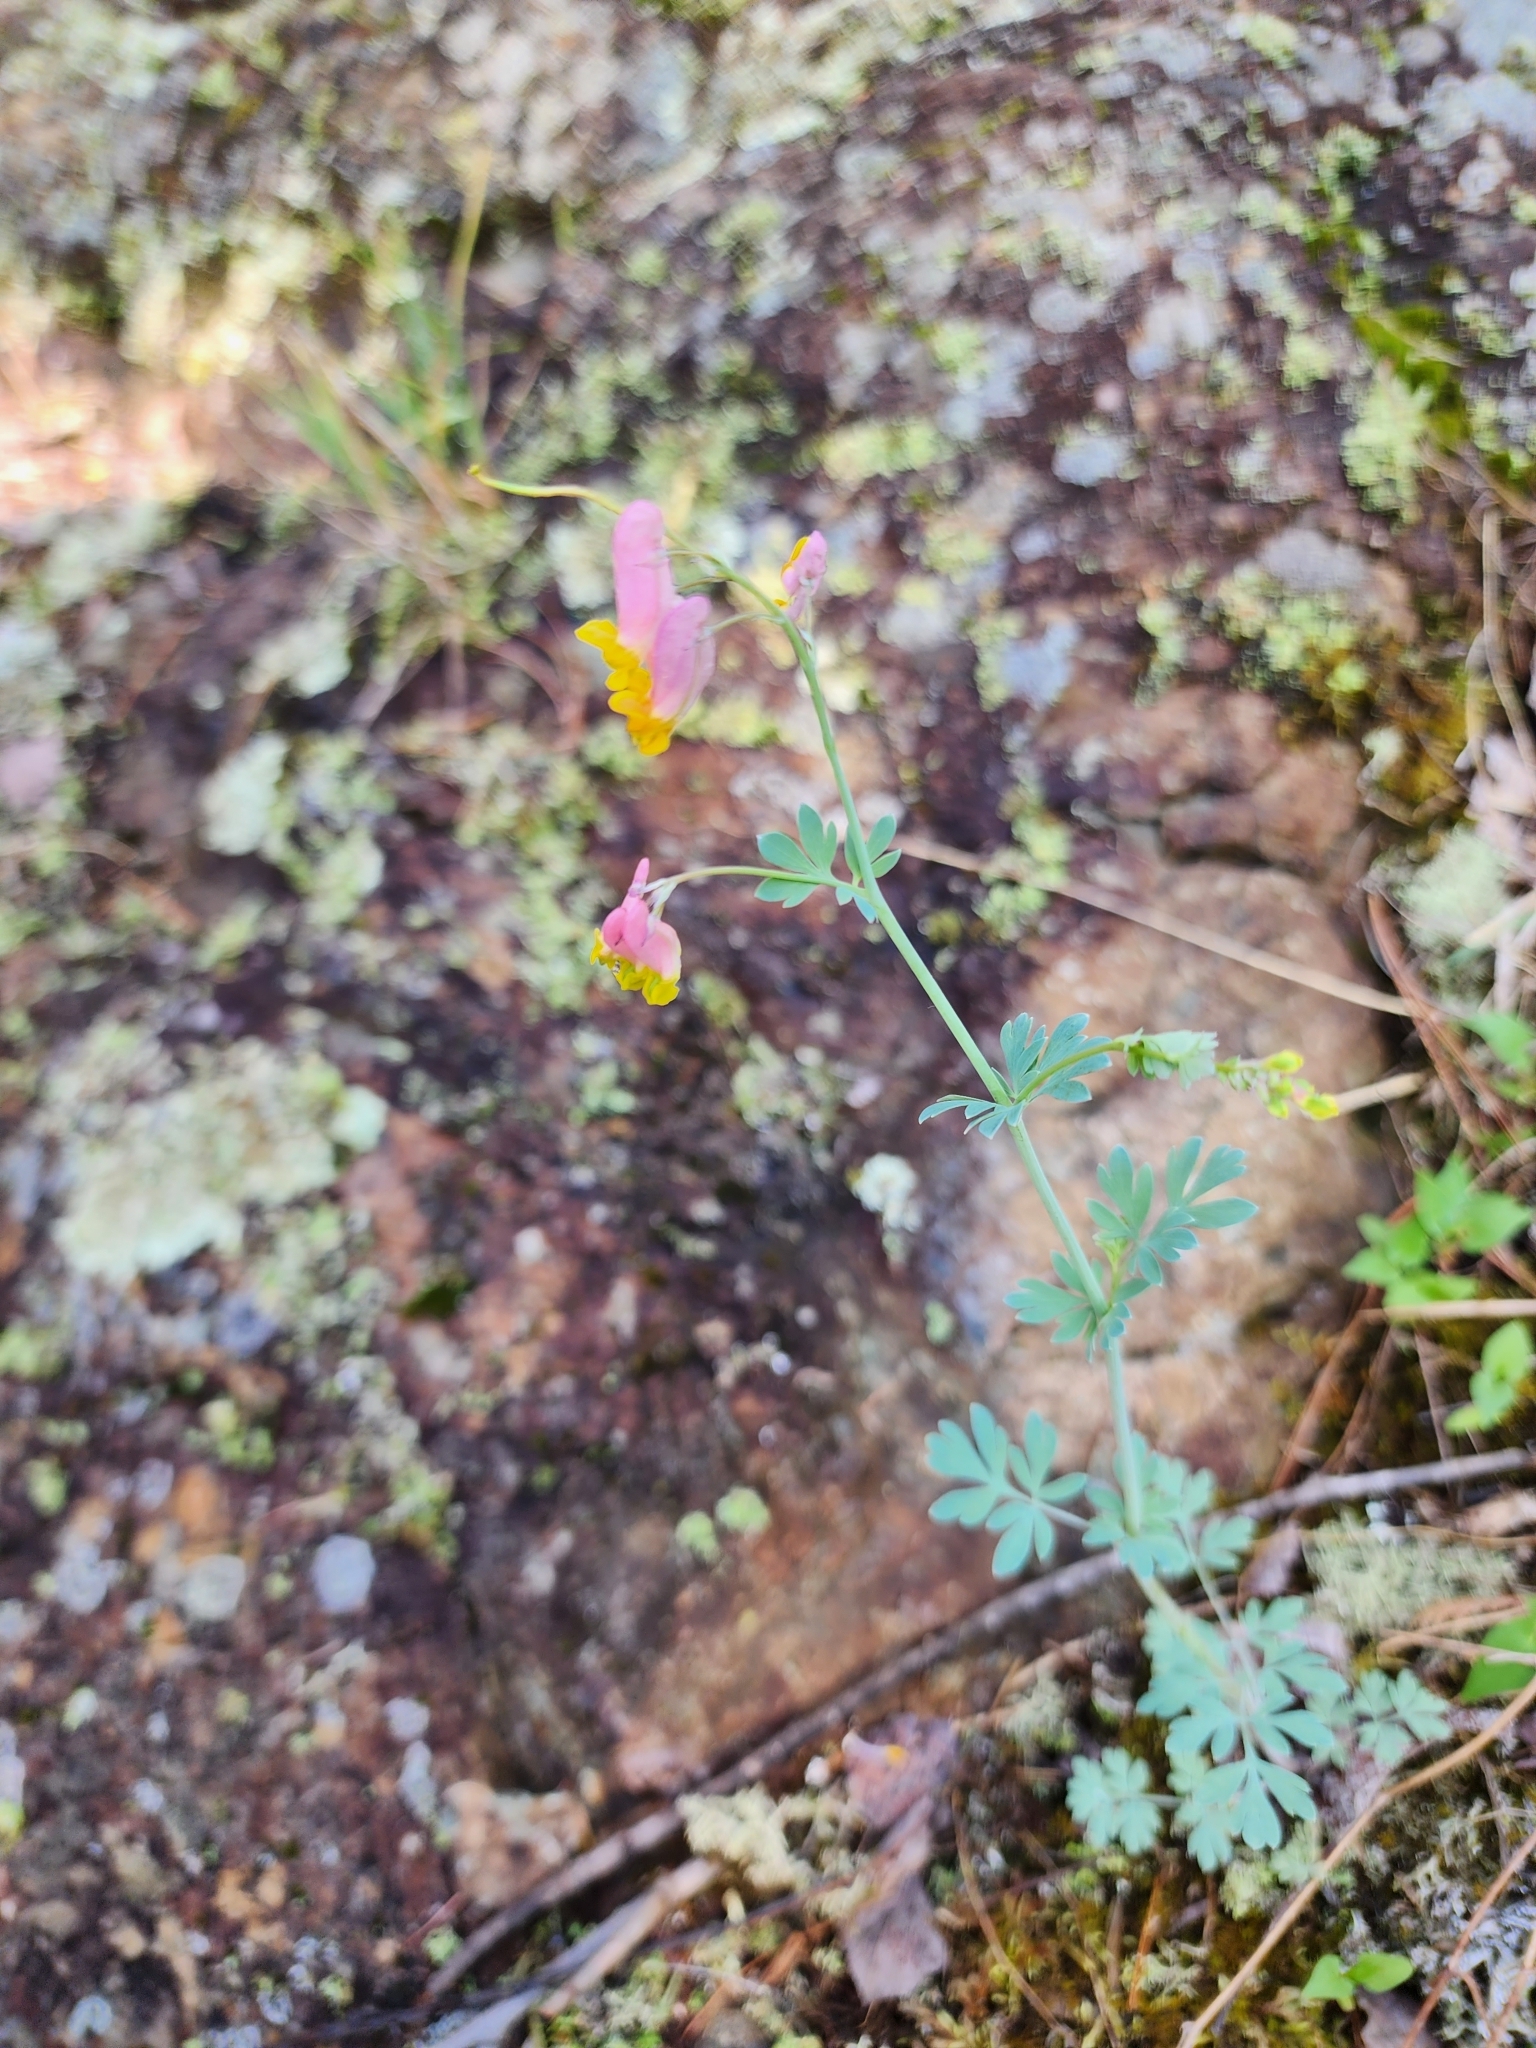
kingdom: Plantae
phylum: Tracheophyta
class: Magnoliopsida
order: Ranunculales
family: Papaveraceae
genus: Capnoides
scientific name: Capnoides sempervirens
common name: Rock harlequin
